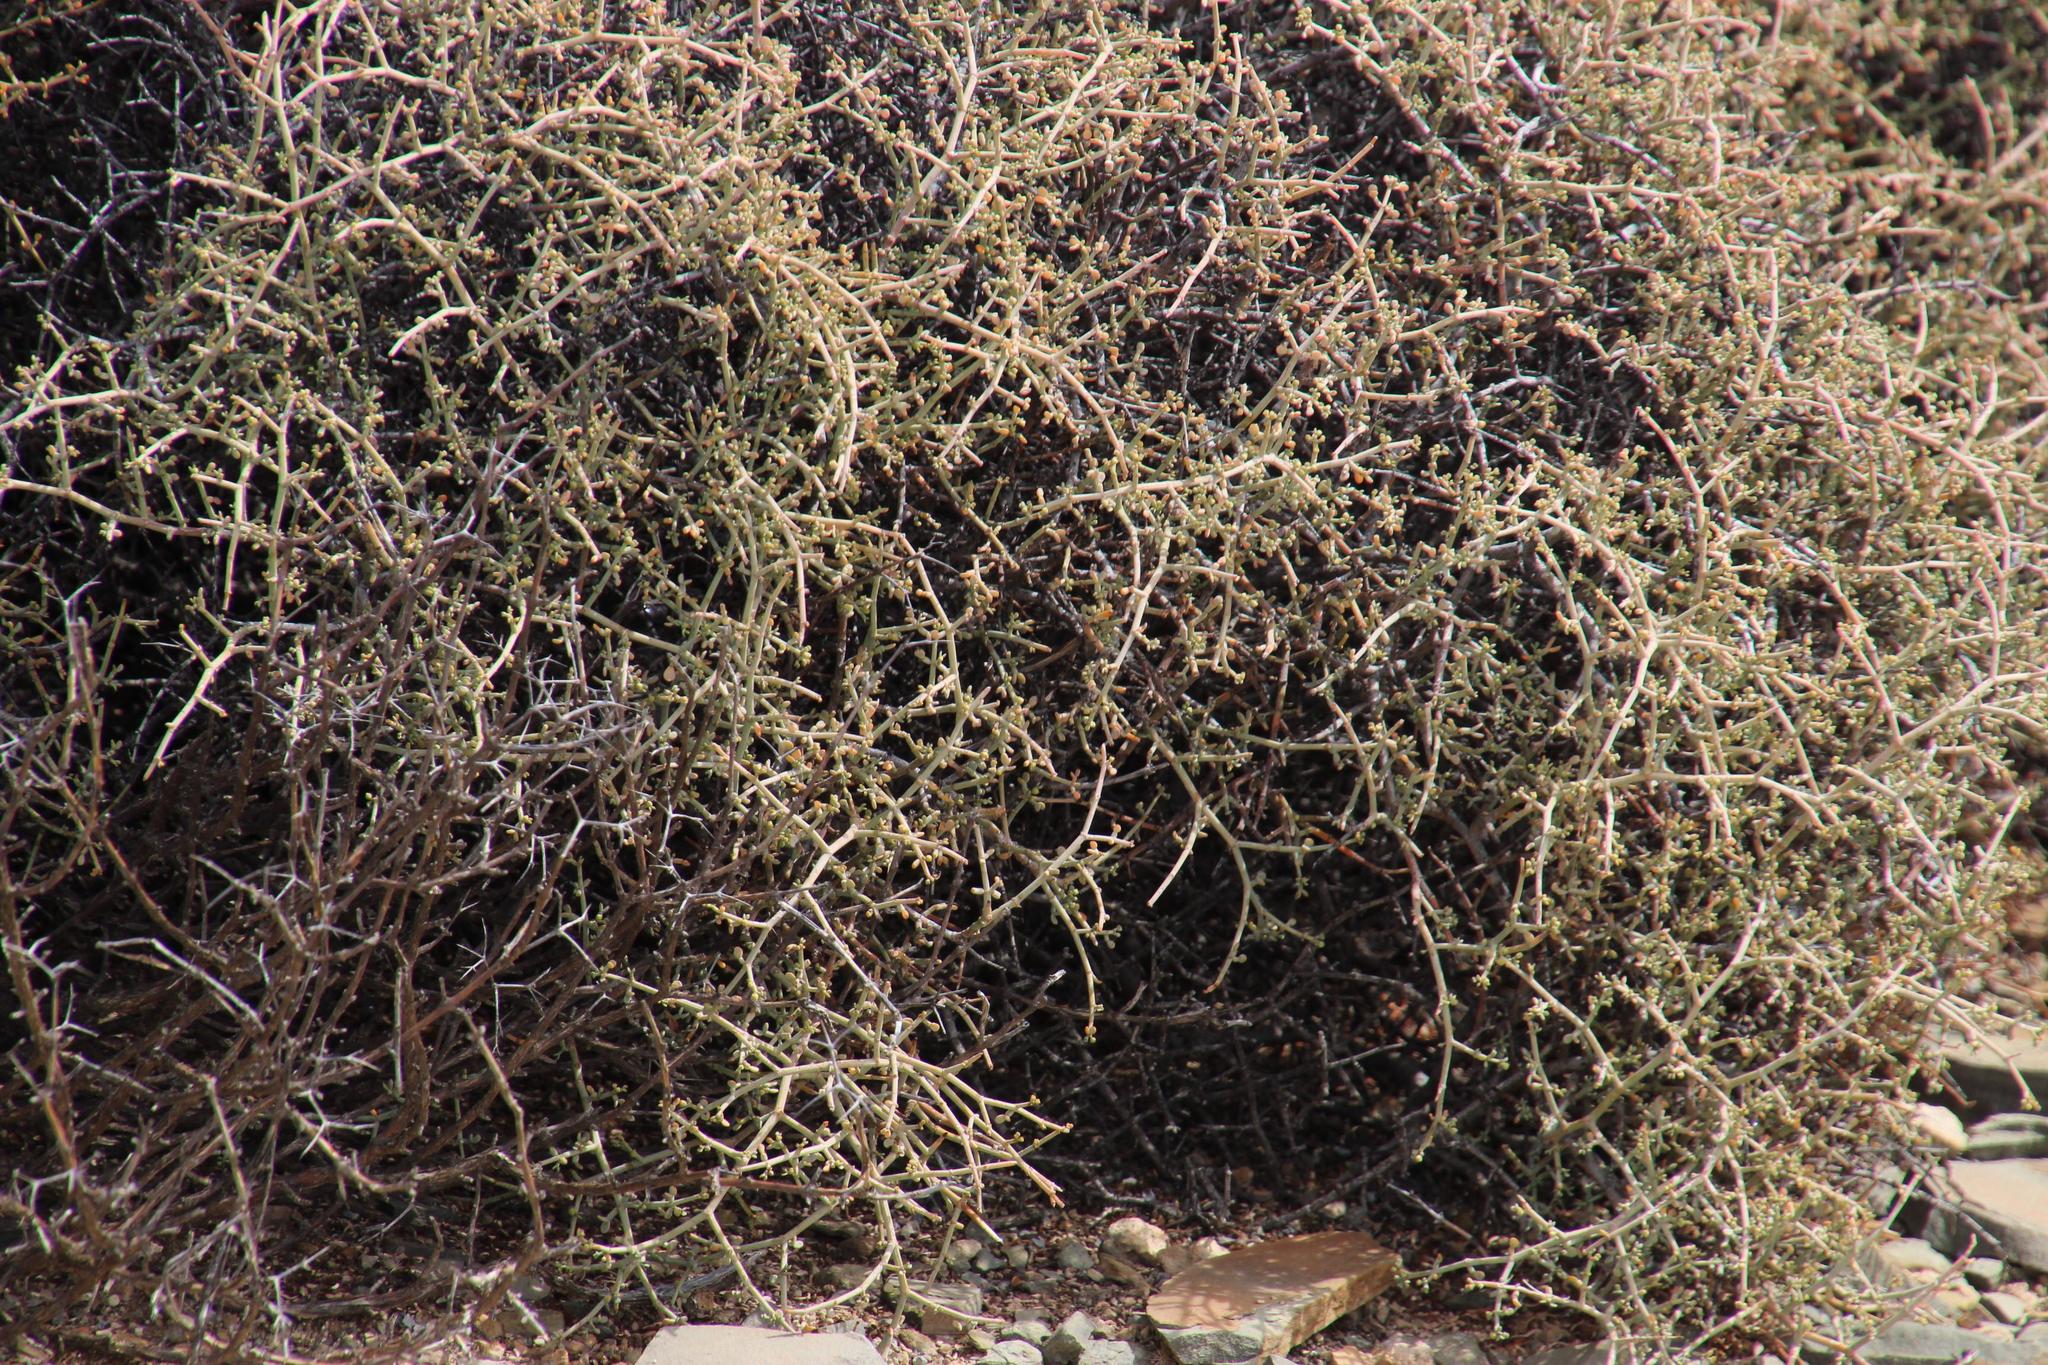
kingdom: Plantae
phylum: Tracheophyta
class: Magnoliopsida
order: Zygophyllales
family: Zygophyllaceae
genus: Tetraena
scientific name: Tetraena chrysopteros
